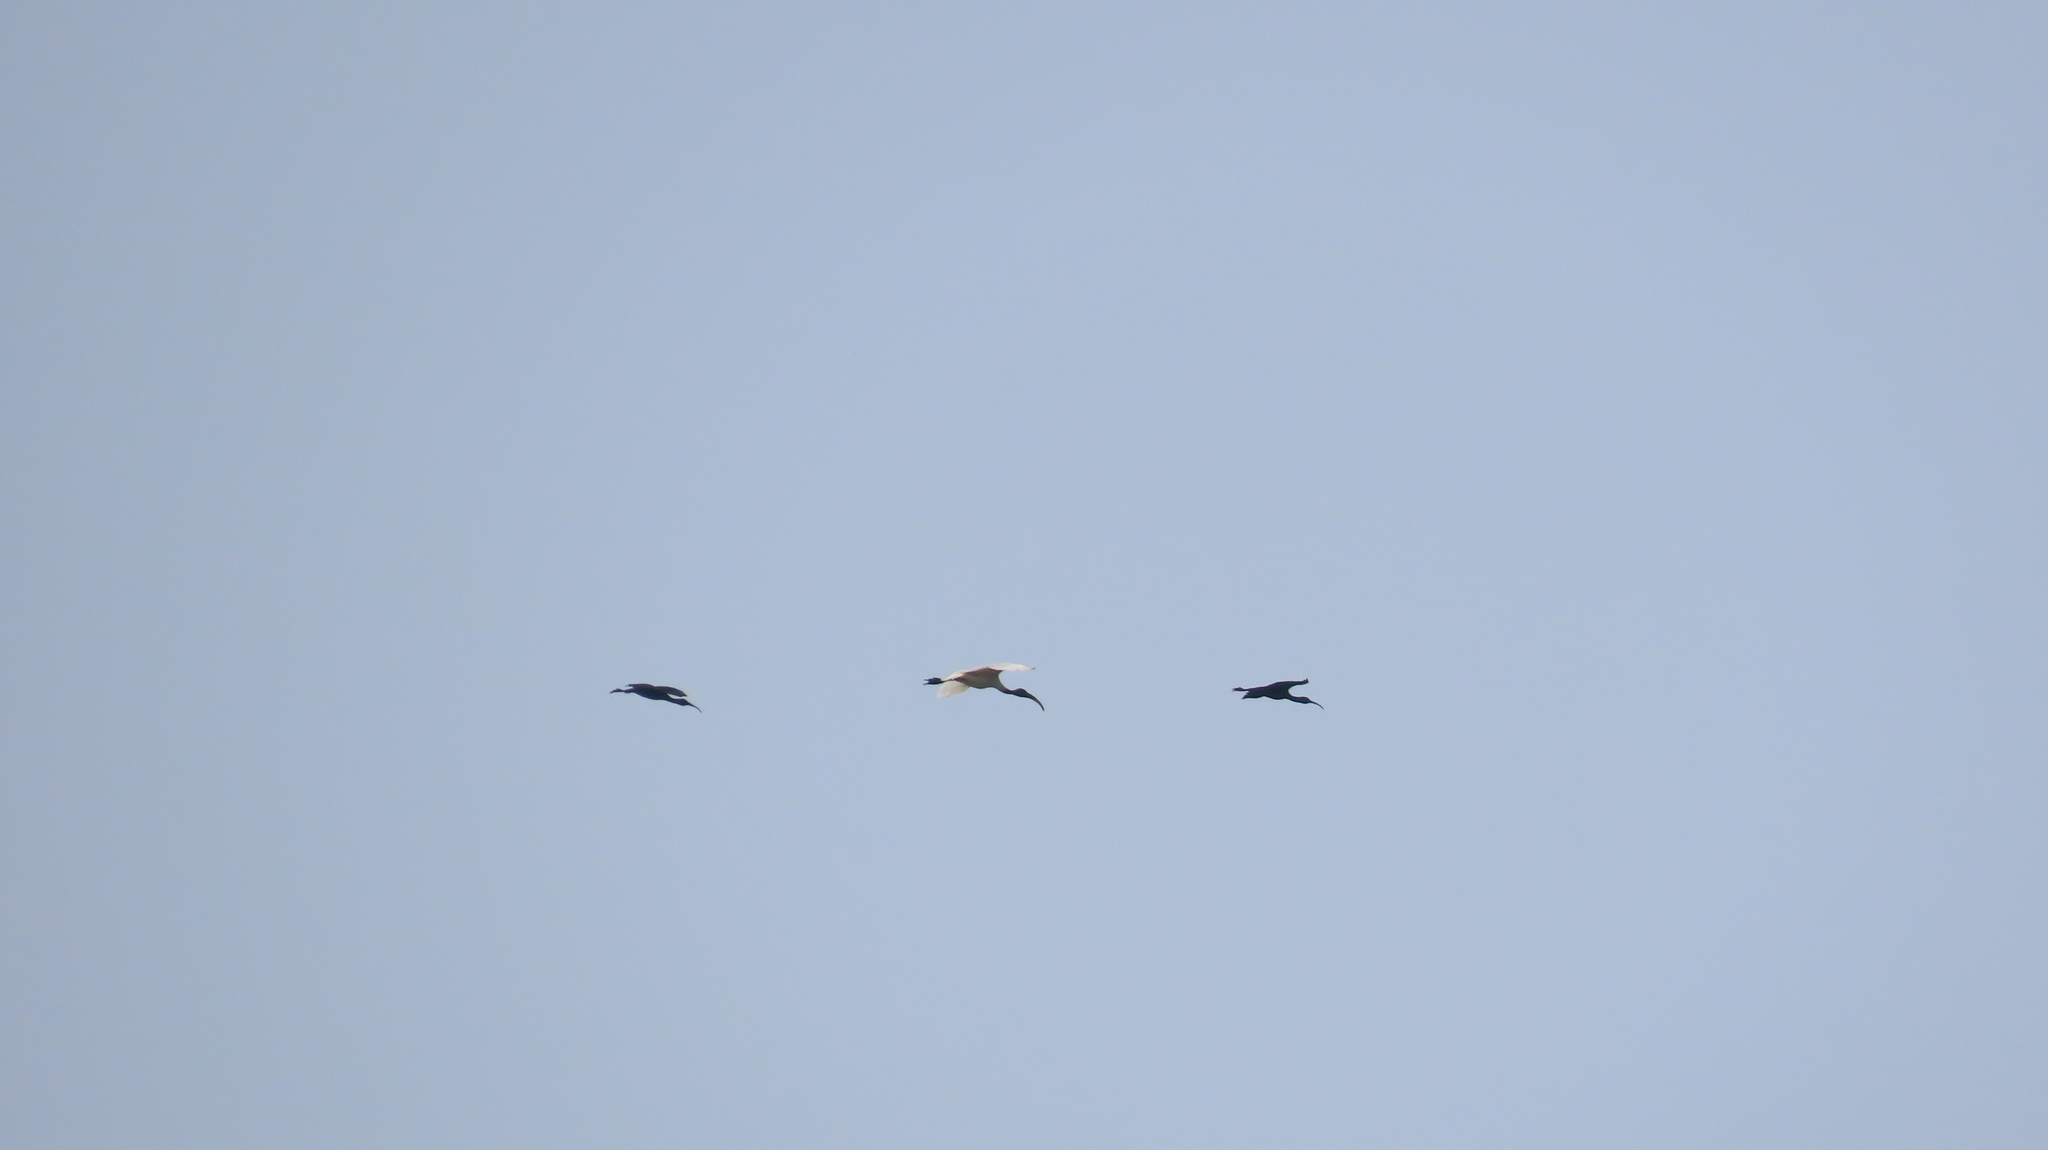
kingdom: Animalia
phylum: Chordata
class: Aves
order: Pelecaniformes
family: Threskiornithidae
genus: Plegadis
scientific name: Plegadis falcinellus
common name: Glossy ibis
